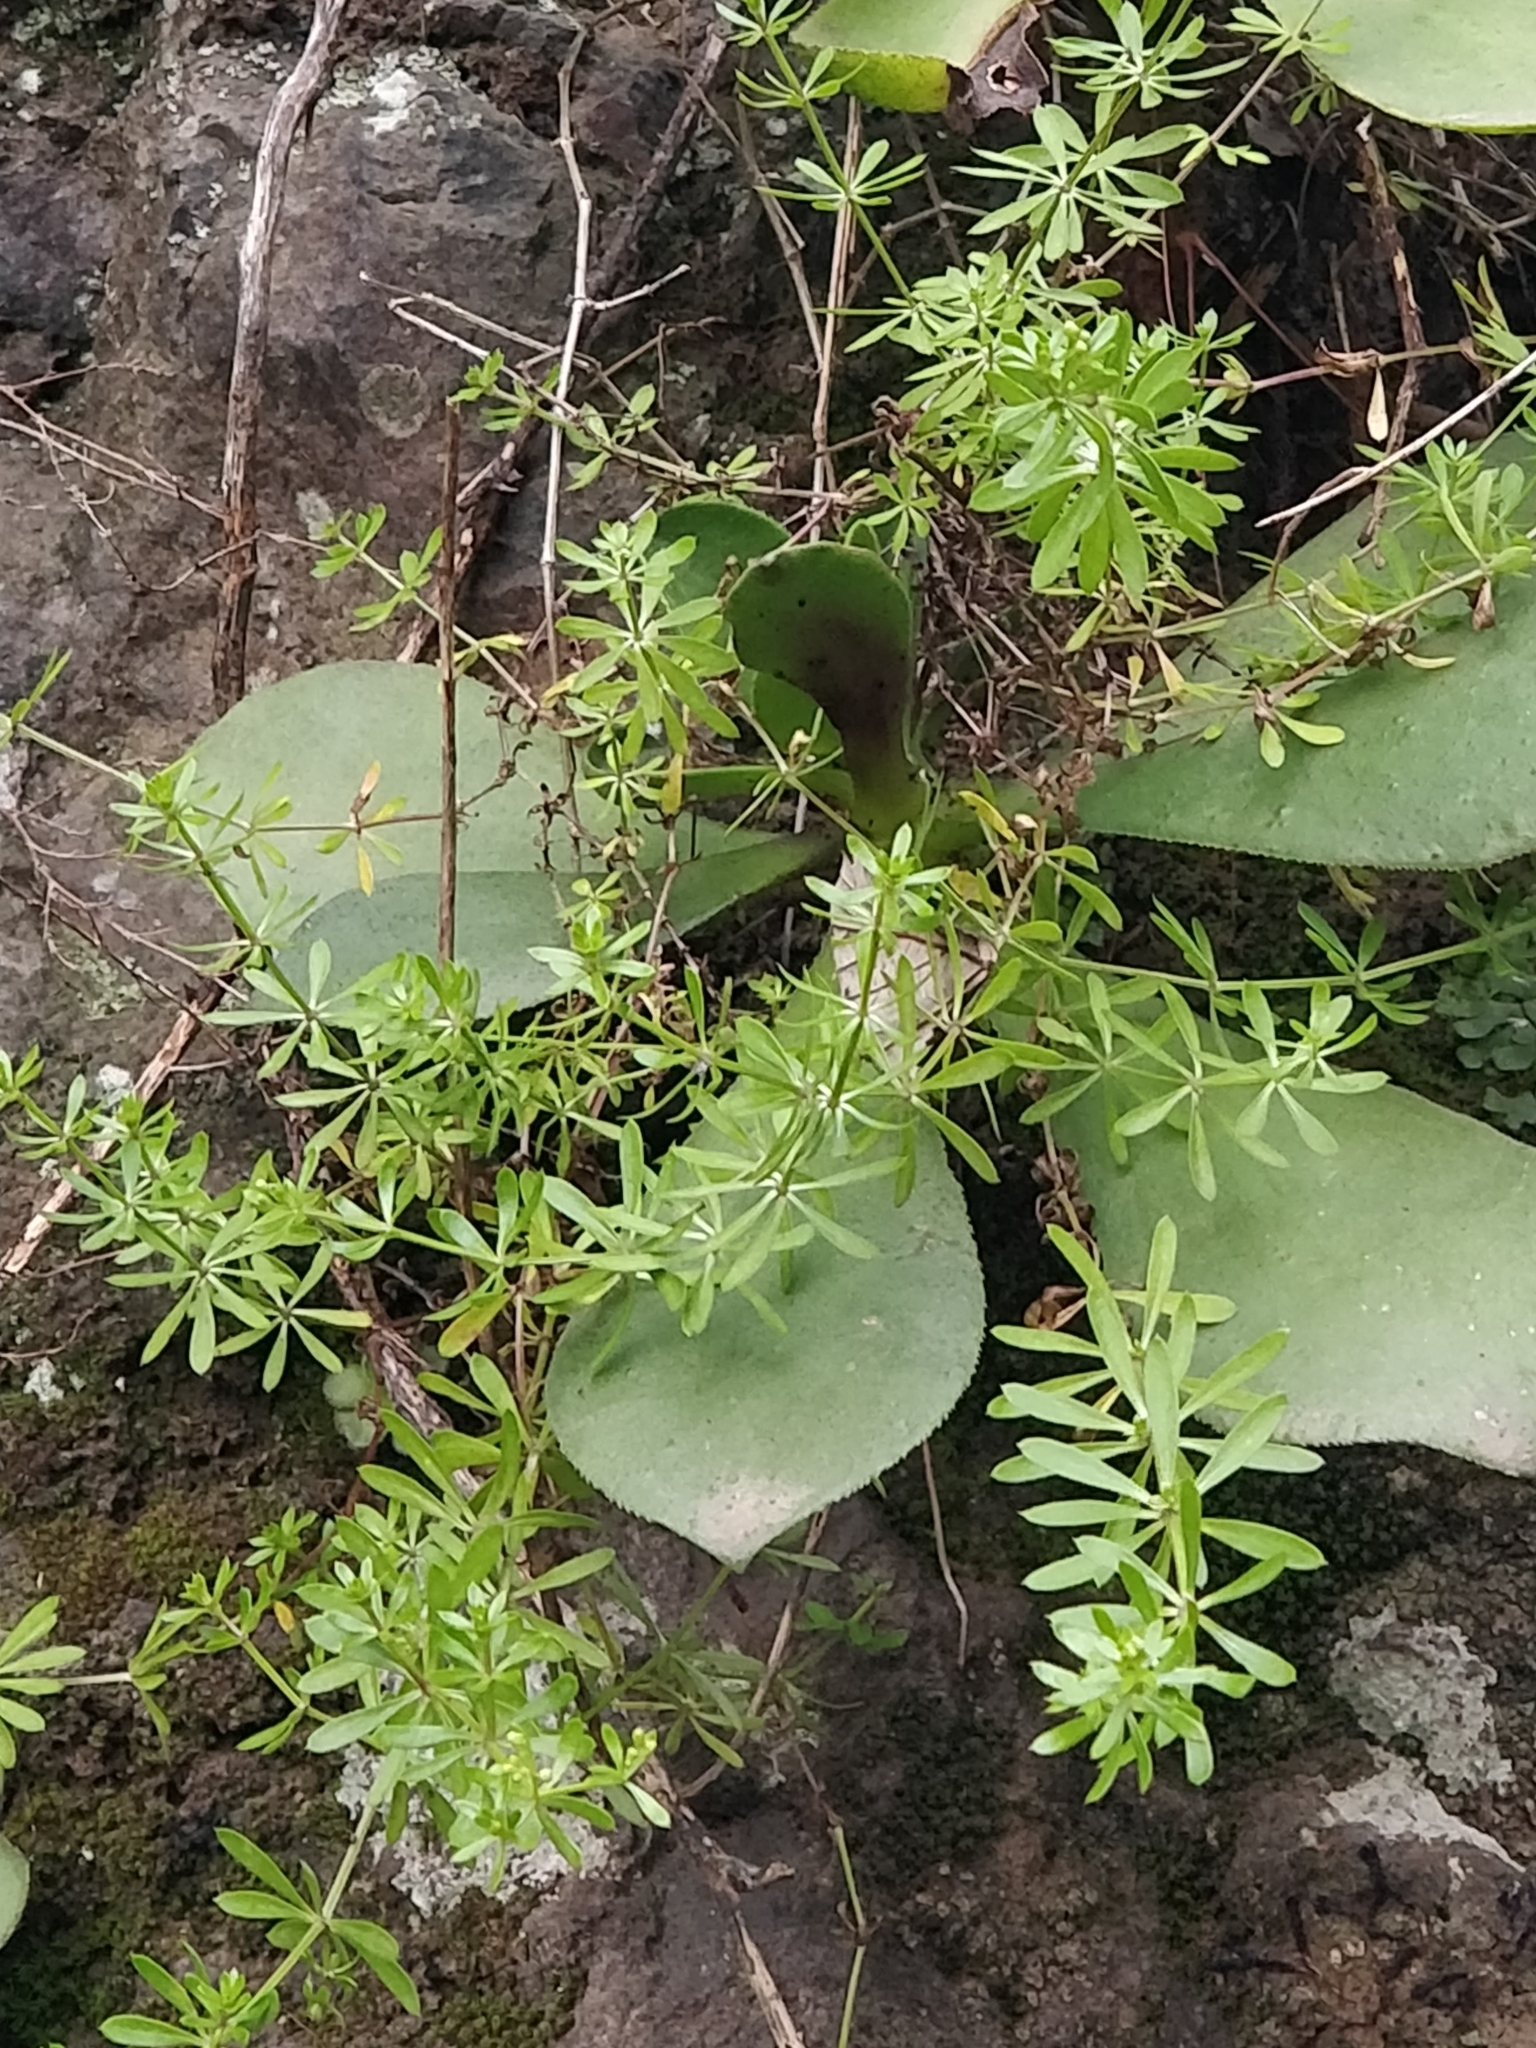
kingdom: Plantae
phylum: Tracheophyta
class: Magnoliopsida
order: Gentianales
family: Rubiaceae
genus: Galium
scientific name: Galium aparine
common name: Cleavers
